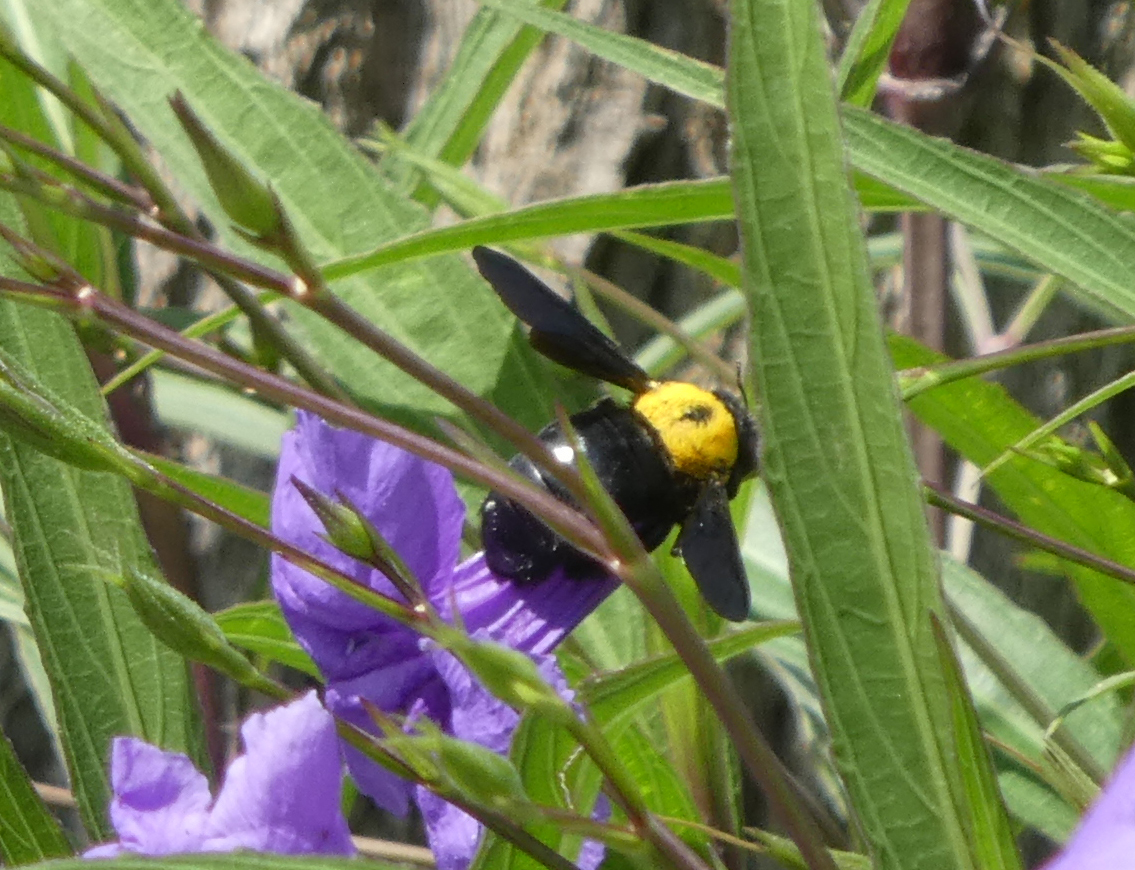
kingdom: Animalia
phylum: Arthropoda
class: Insecta
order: Hymenoptera
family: Apidae
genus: Xylocopa
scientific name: Xylocopa pubescens
